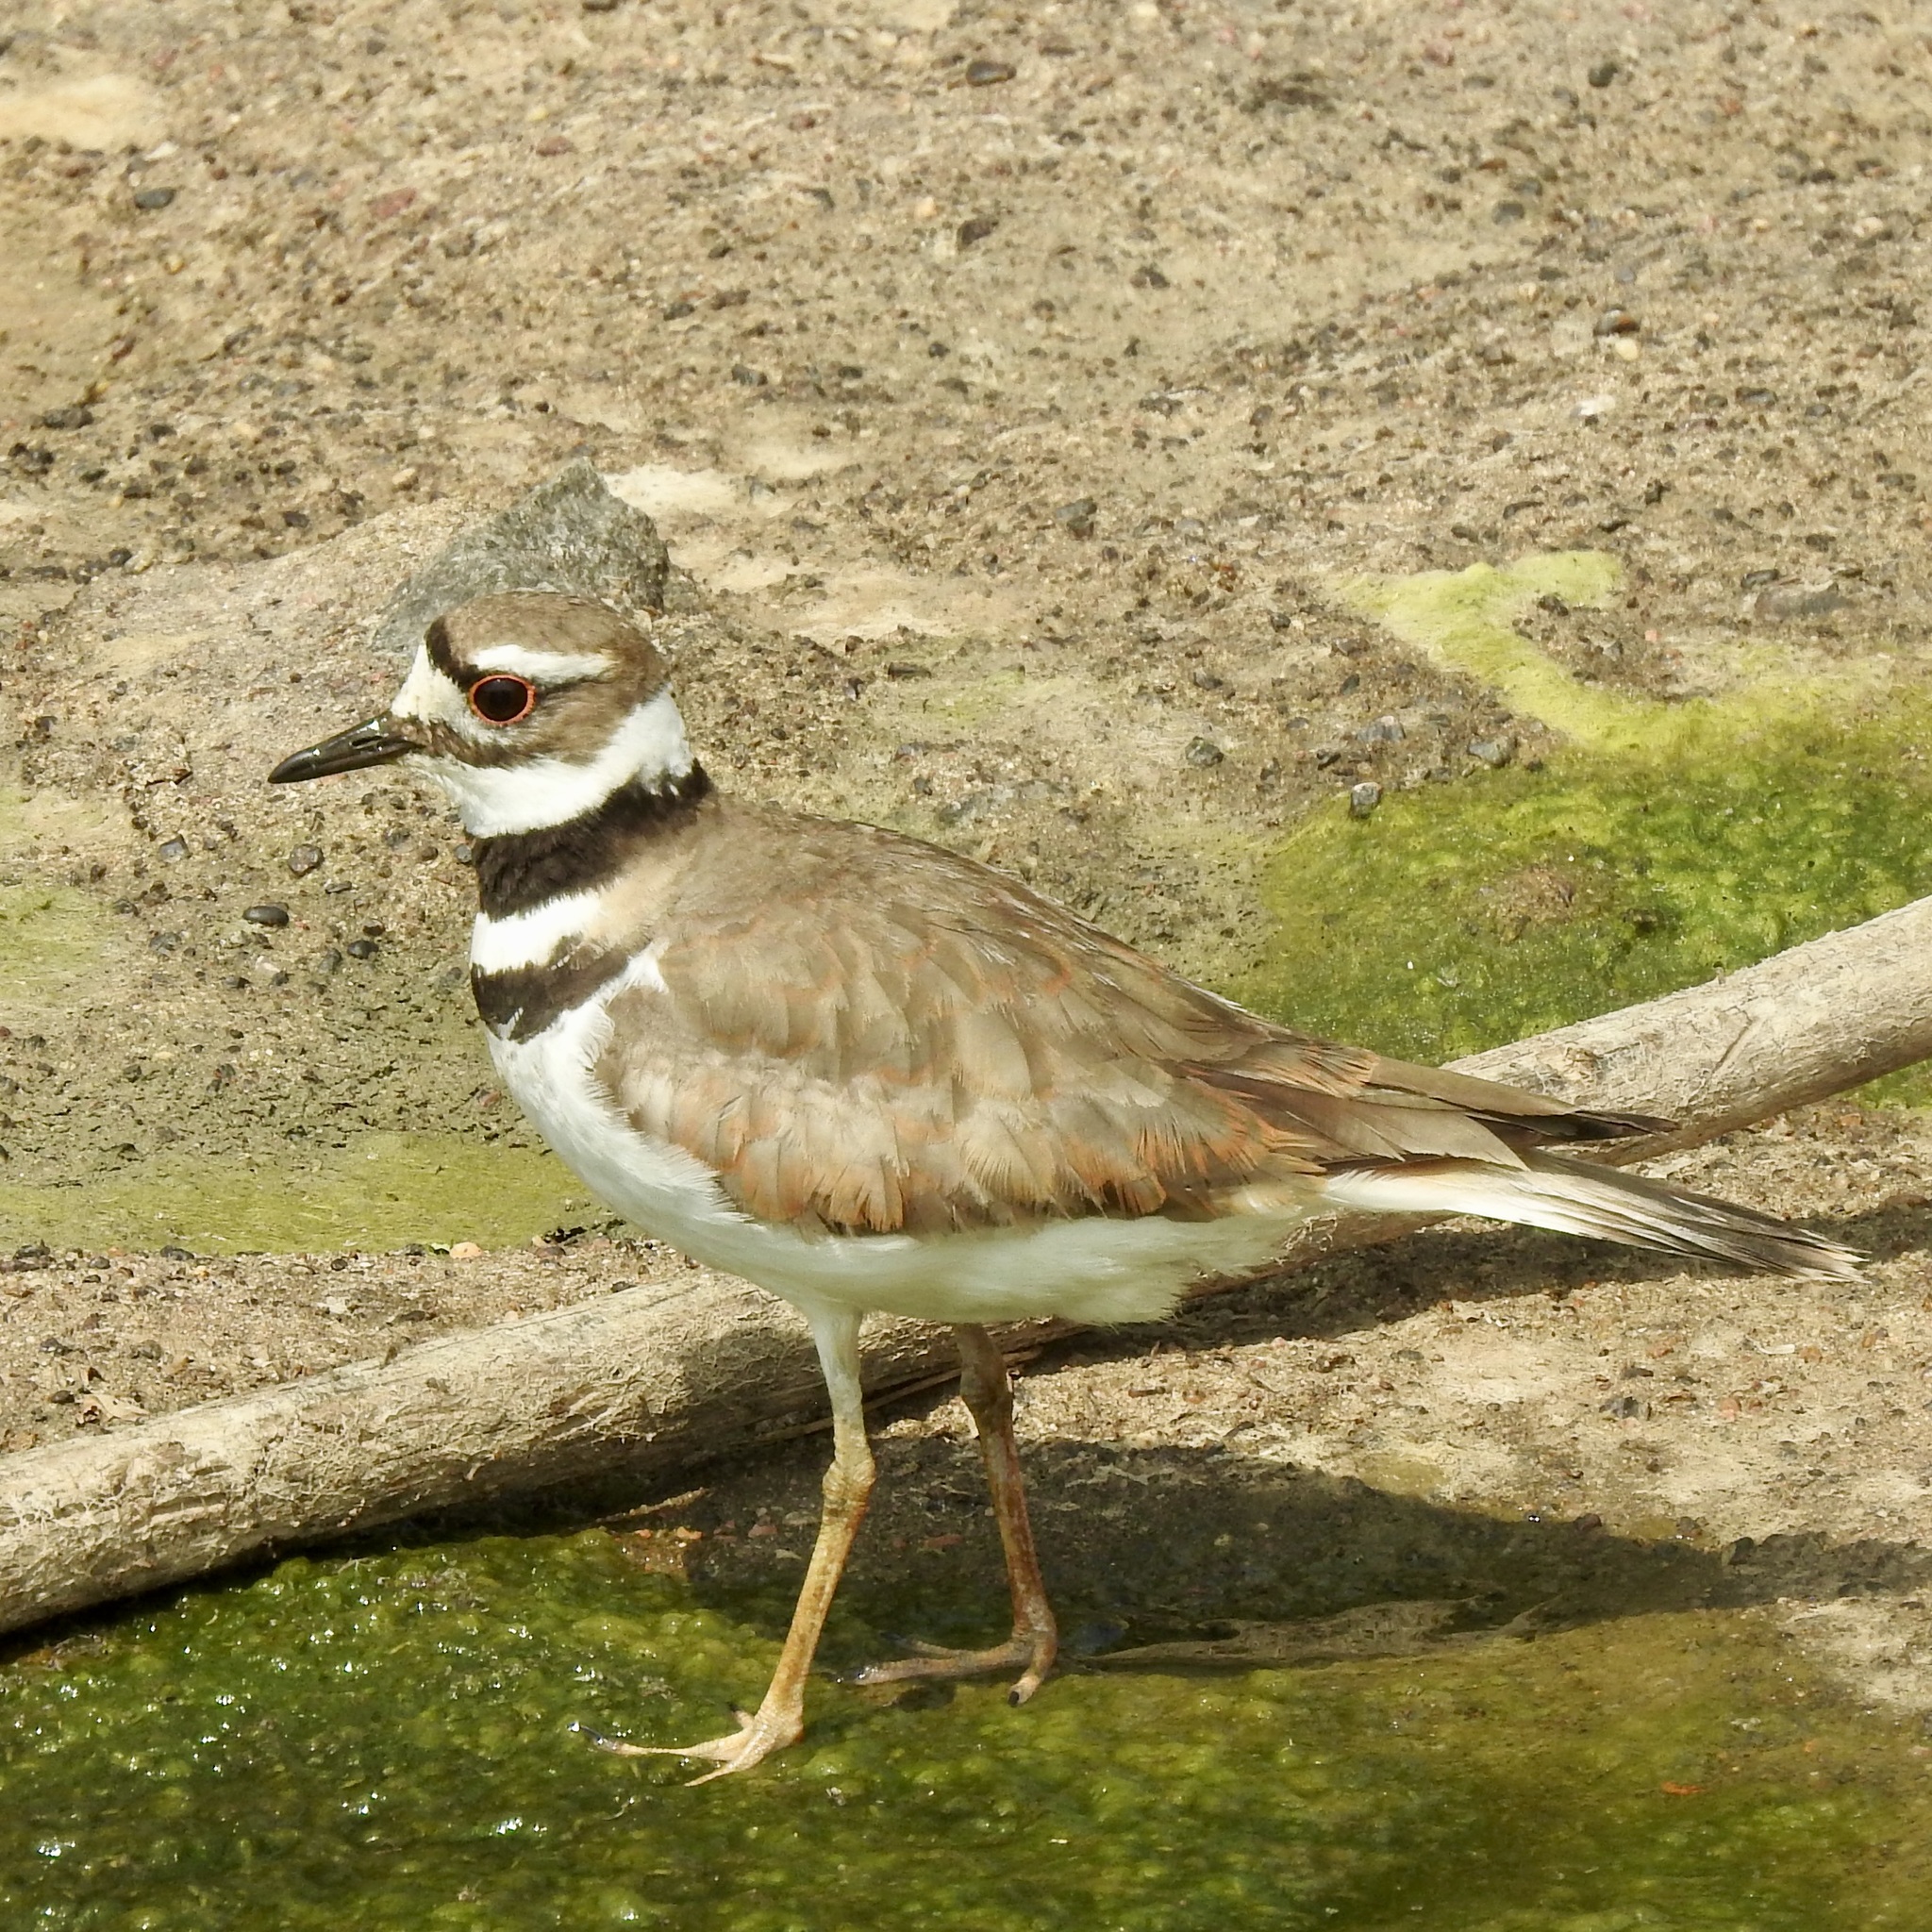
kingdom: Animalia
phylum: Chordata
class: Aves
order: Charadriiformes
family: Charadriidae
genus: Charadrius
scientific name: Charadrius vociferus
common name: Killdeer
